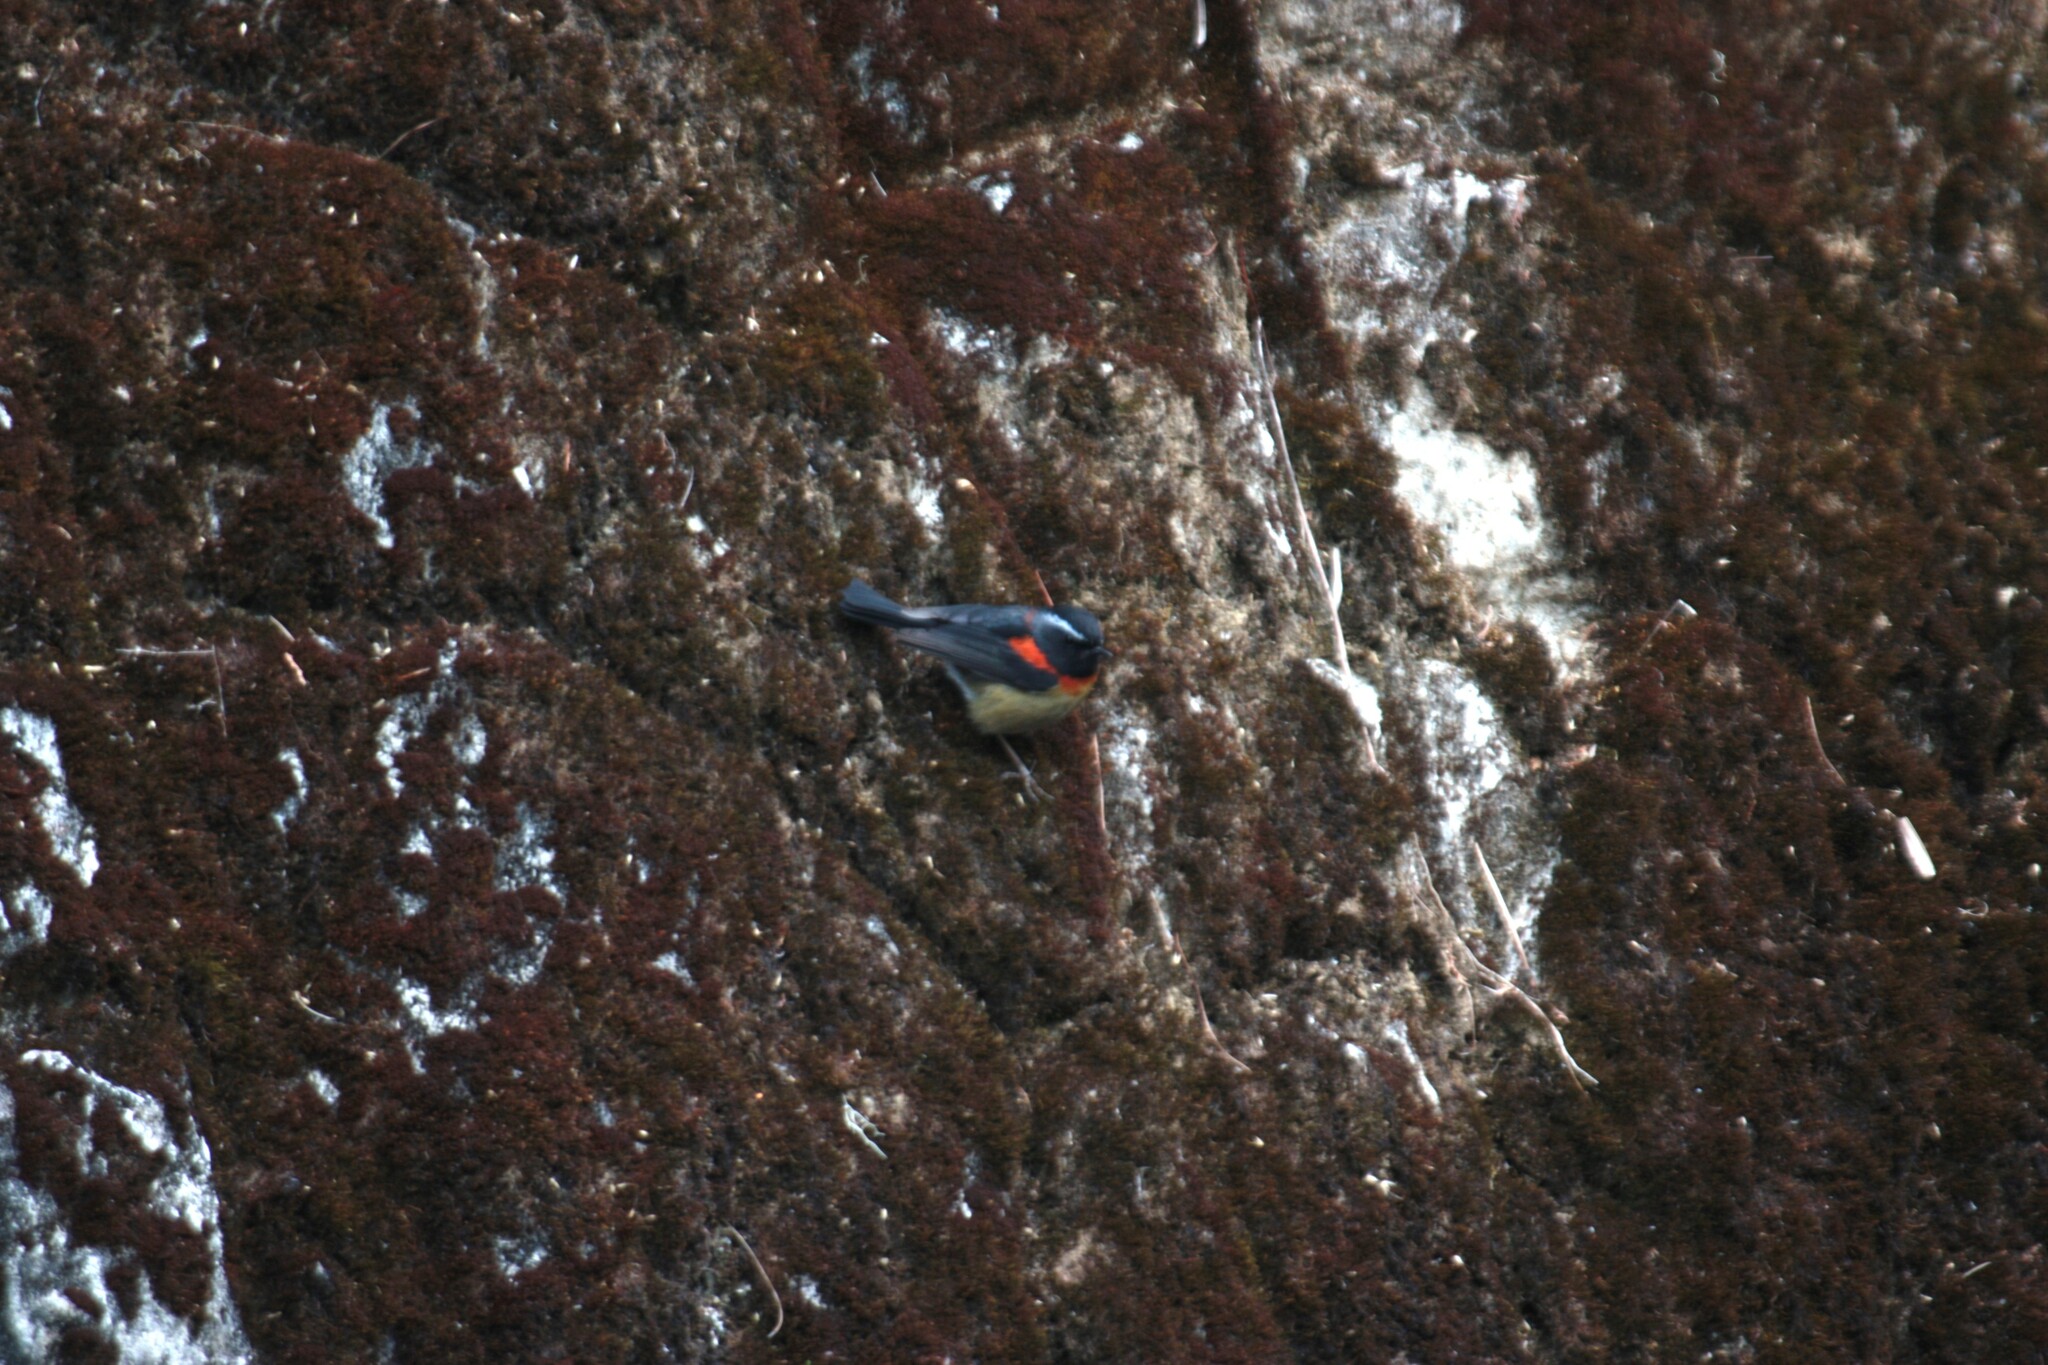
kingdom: Animalia
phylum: Chordata
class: Aves
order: Passeriformes
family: Muscicapidae
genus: Tarsiger
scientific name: Tarsiger johnstoniae
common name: Collared bush robin
